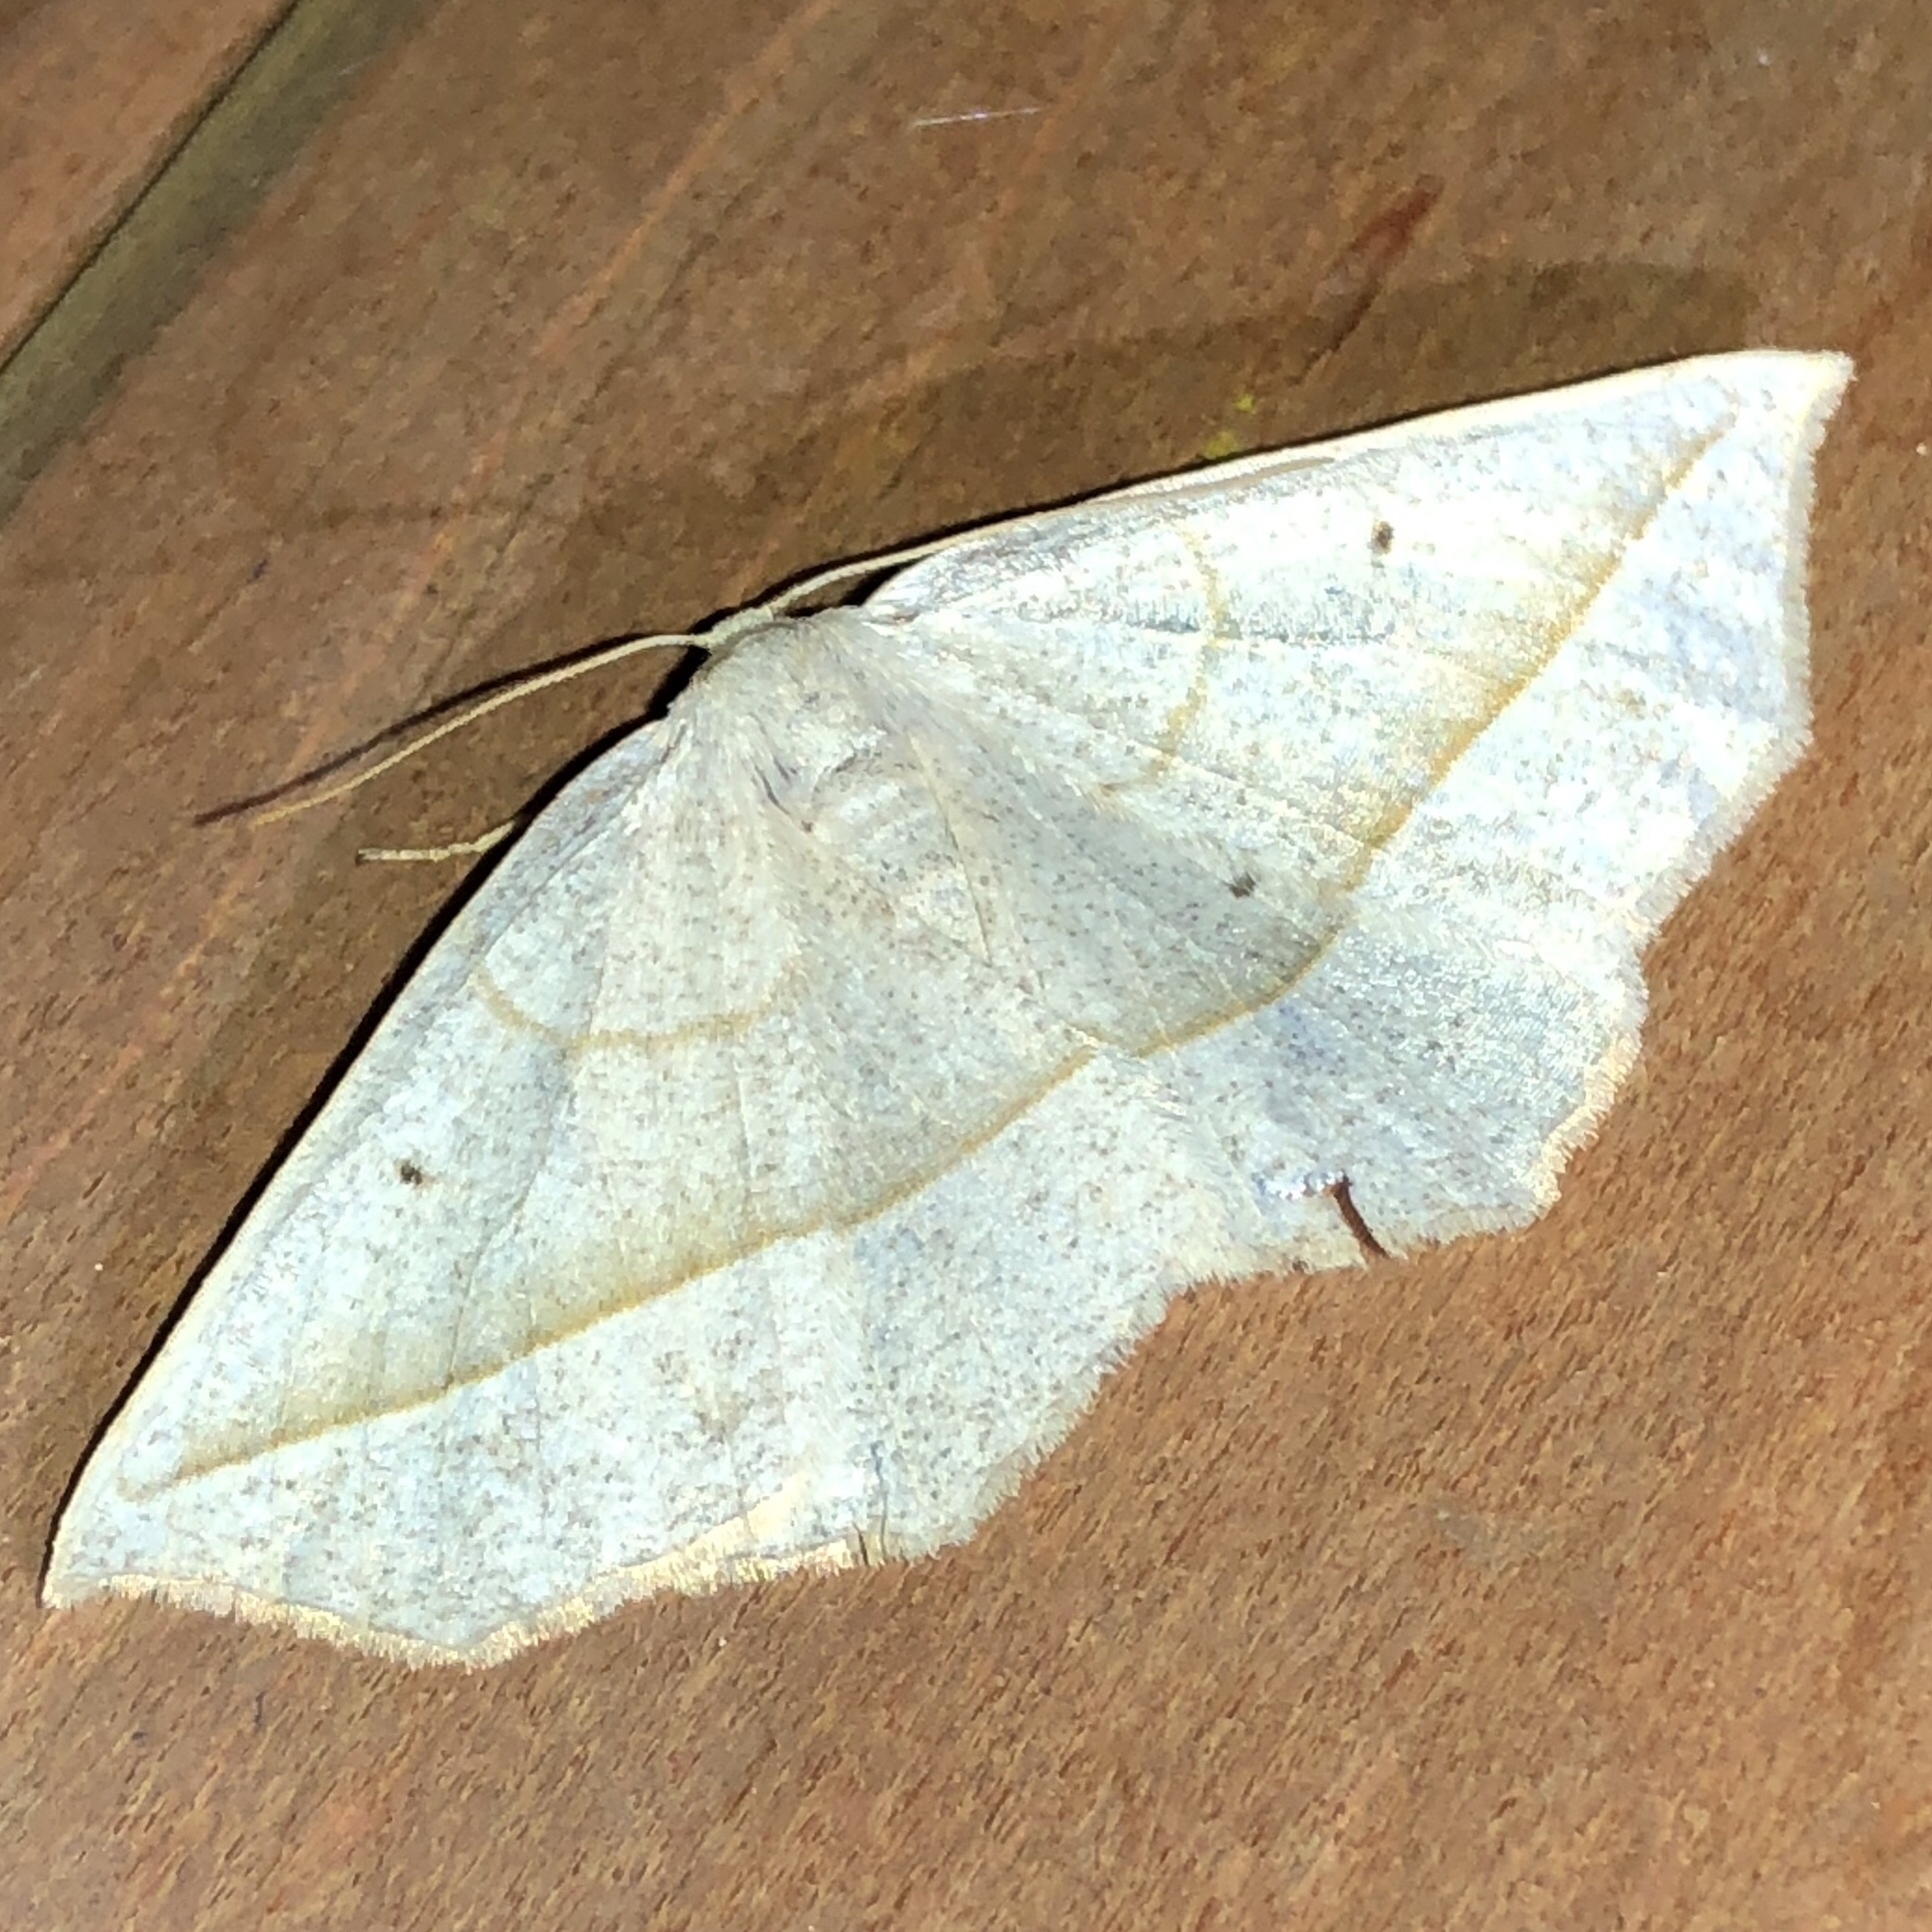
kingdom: Animalia
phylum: Arthropoda
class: Insecta
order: Lepidoptera
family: Geometridae
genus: Eusarca
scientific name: Eusarca confusaria
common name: Confused eusarca
